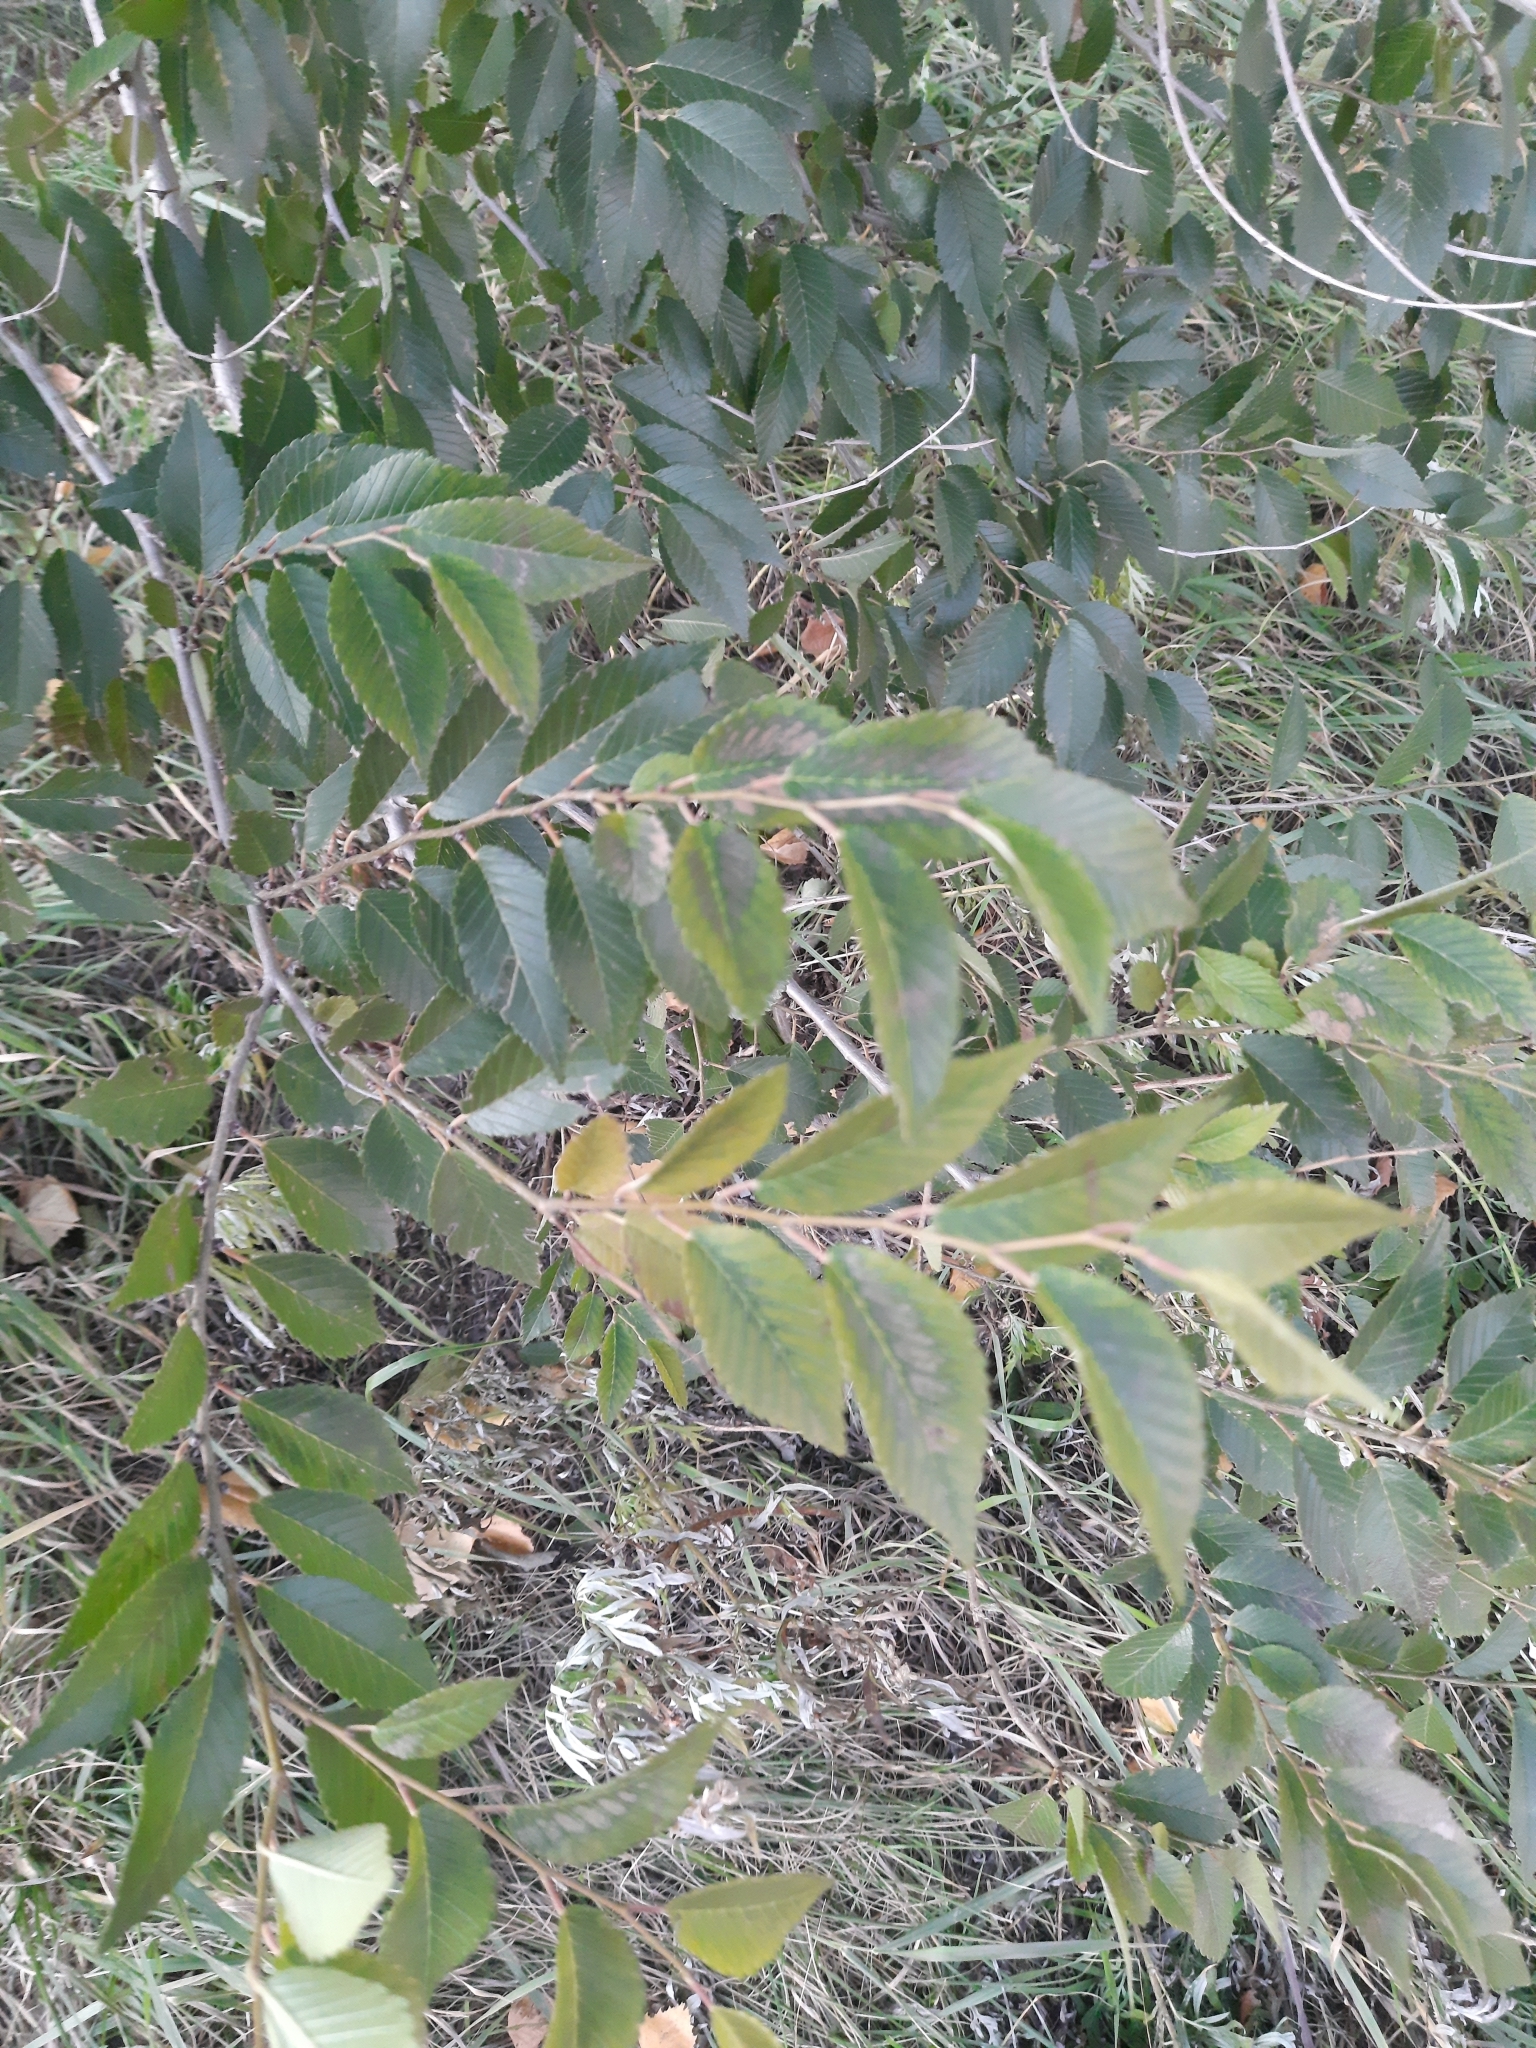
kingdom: Plantae
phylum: Tracheophyta
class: Magnoliopsida
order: Rosales
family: Ulmaceae
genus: Ulmus
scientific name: Ulmus pumila
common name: Siberian elm
